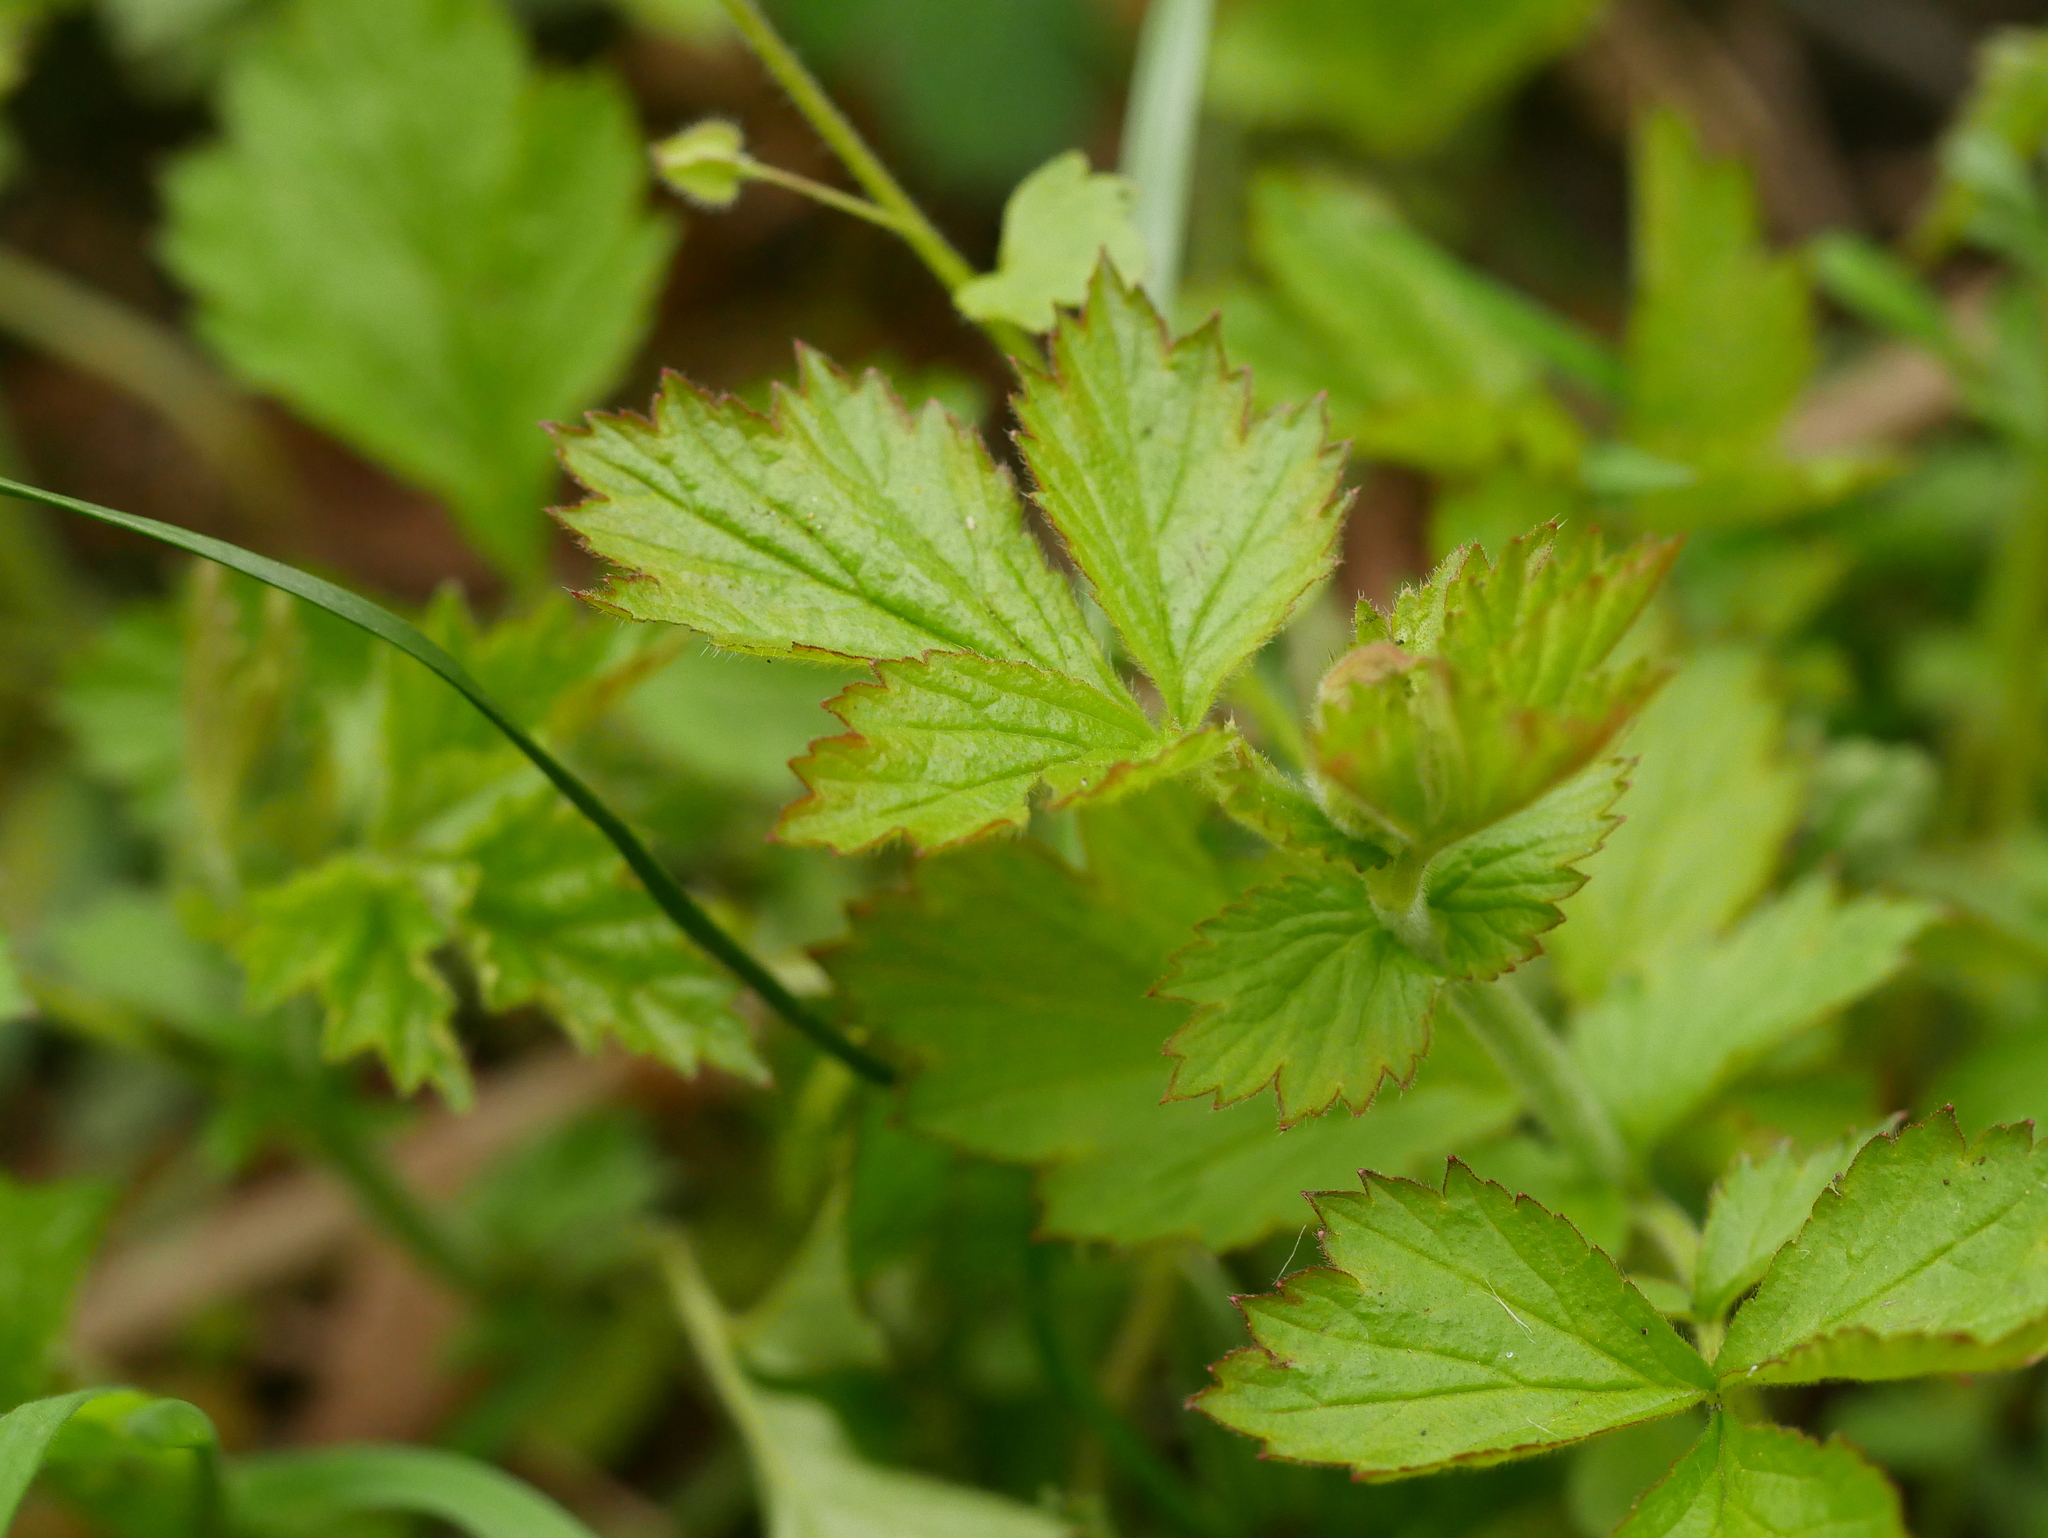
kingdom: Plantae
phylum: Tracheophyta
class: Magnoliopsida
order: Rosales
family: Rosaceae
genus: Geum
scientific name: Geum urbanum
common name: Wood avens
